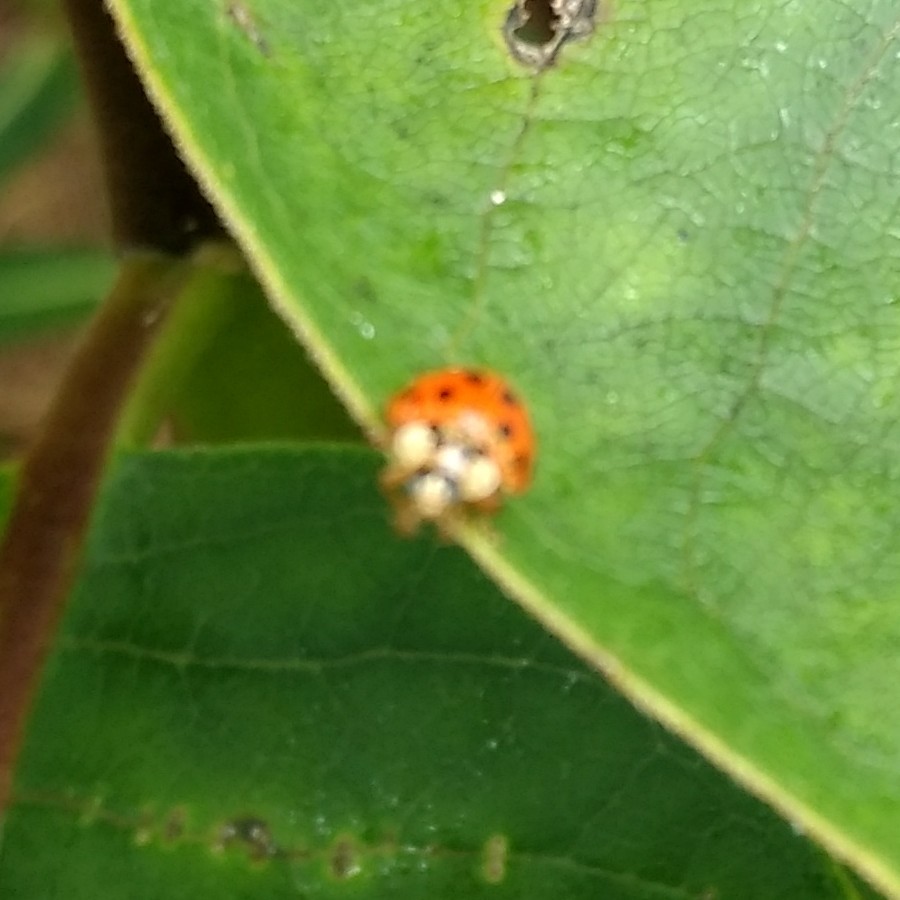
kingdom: Animalia
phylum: Arthropoda
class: Insecta
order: Coleoptera
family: Coccinellidae
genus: Harmonia
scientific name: Harmonia axyridis
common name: Harlequin ladybird
